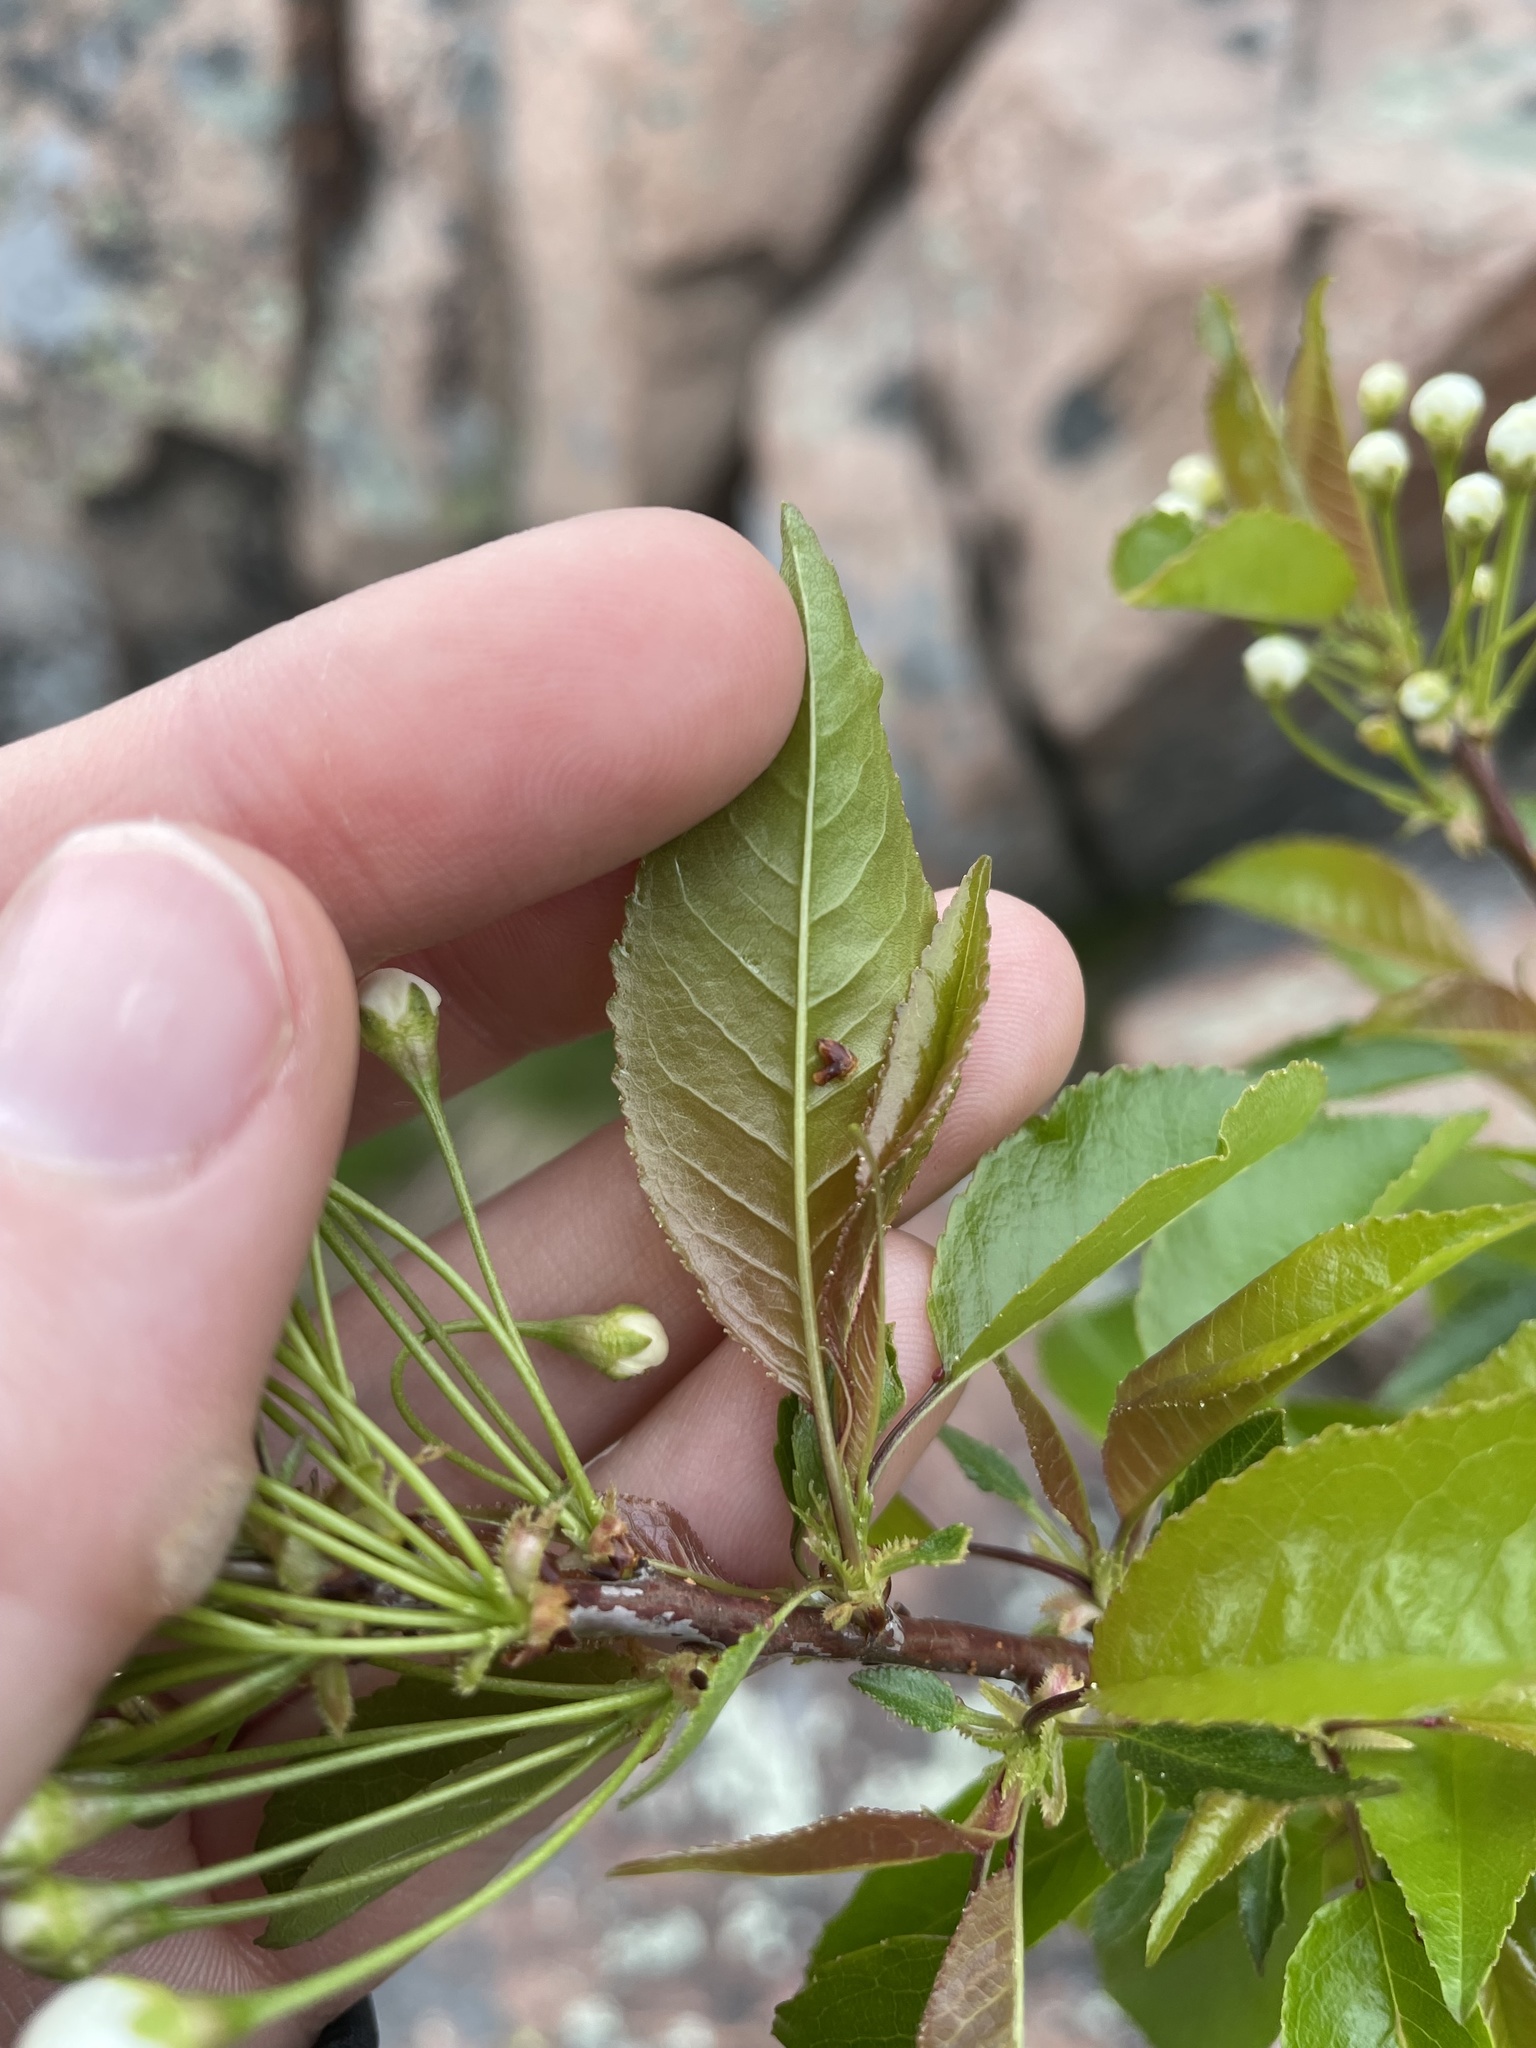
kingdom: Plantae
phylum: Tracheophyta
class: Magnoliopsida
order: Rosales
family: Rosaceae
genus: Prunus
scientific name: Prunus pensylvanica
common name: Pin cherry
